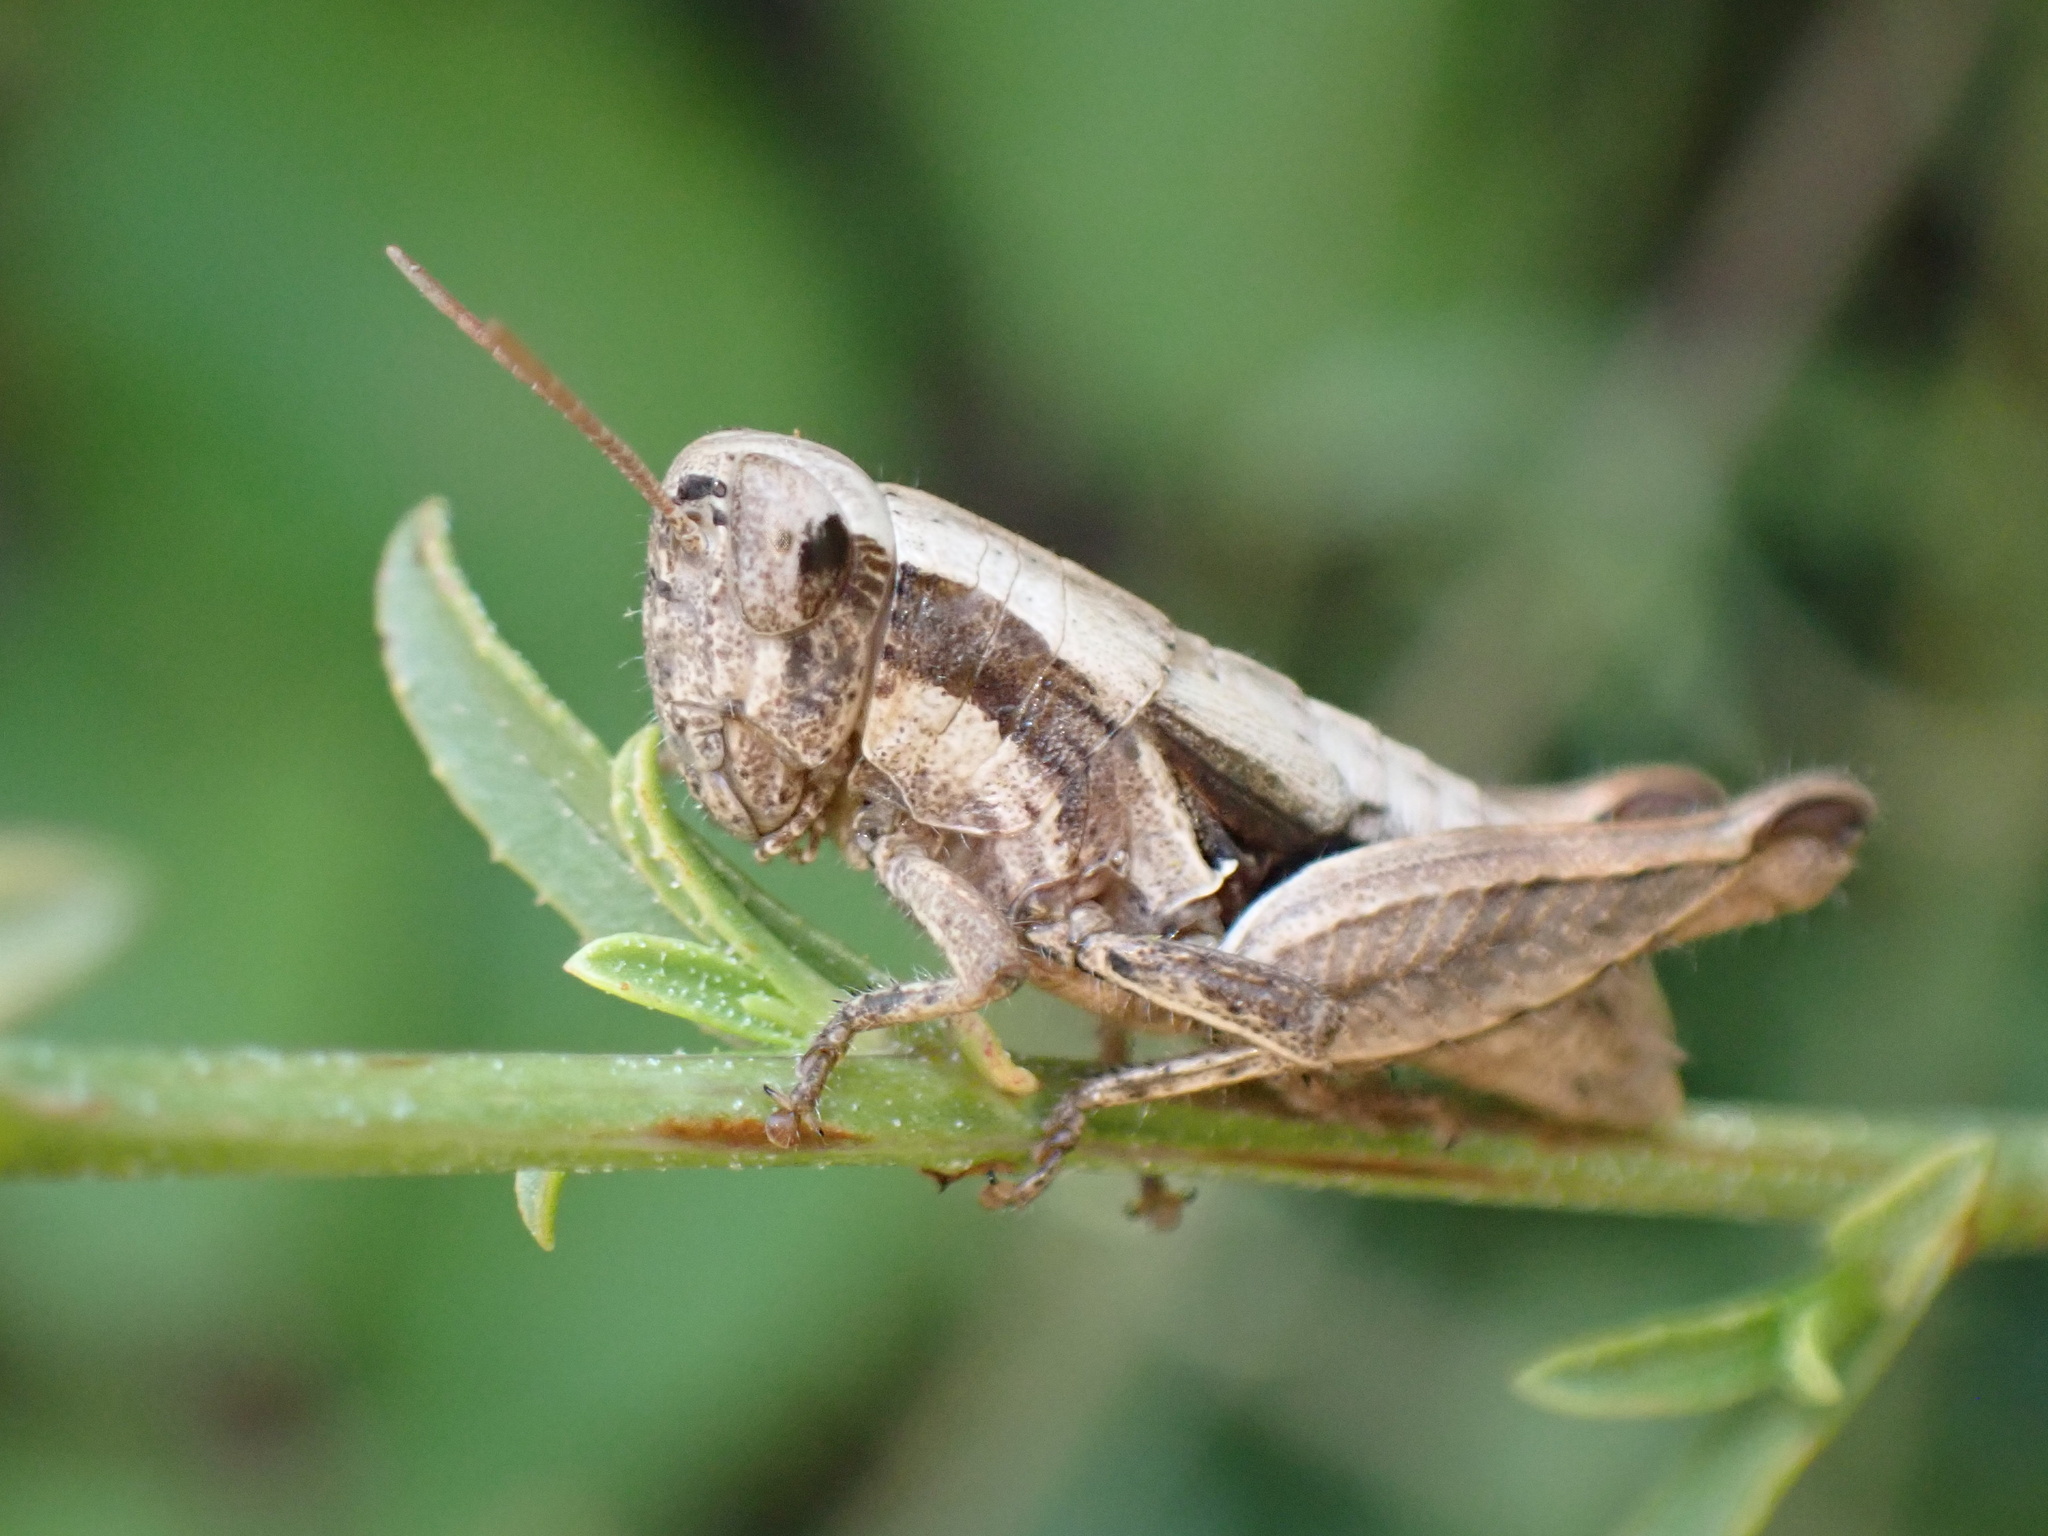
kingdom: Animalia
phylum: Arthropoda
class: Insecta
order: Orthoptera
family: Acrididae
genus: Pezotettix
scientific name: Pezotettix giornae
